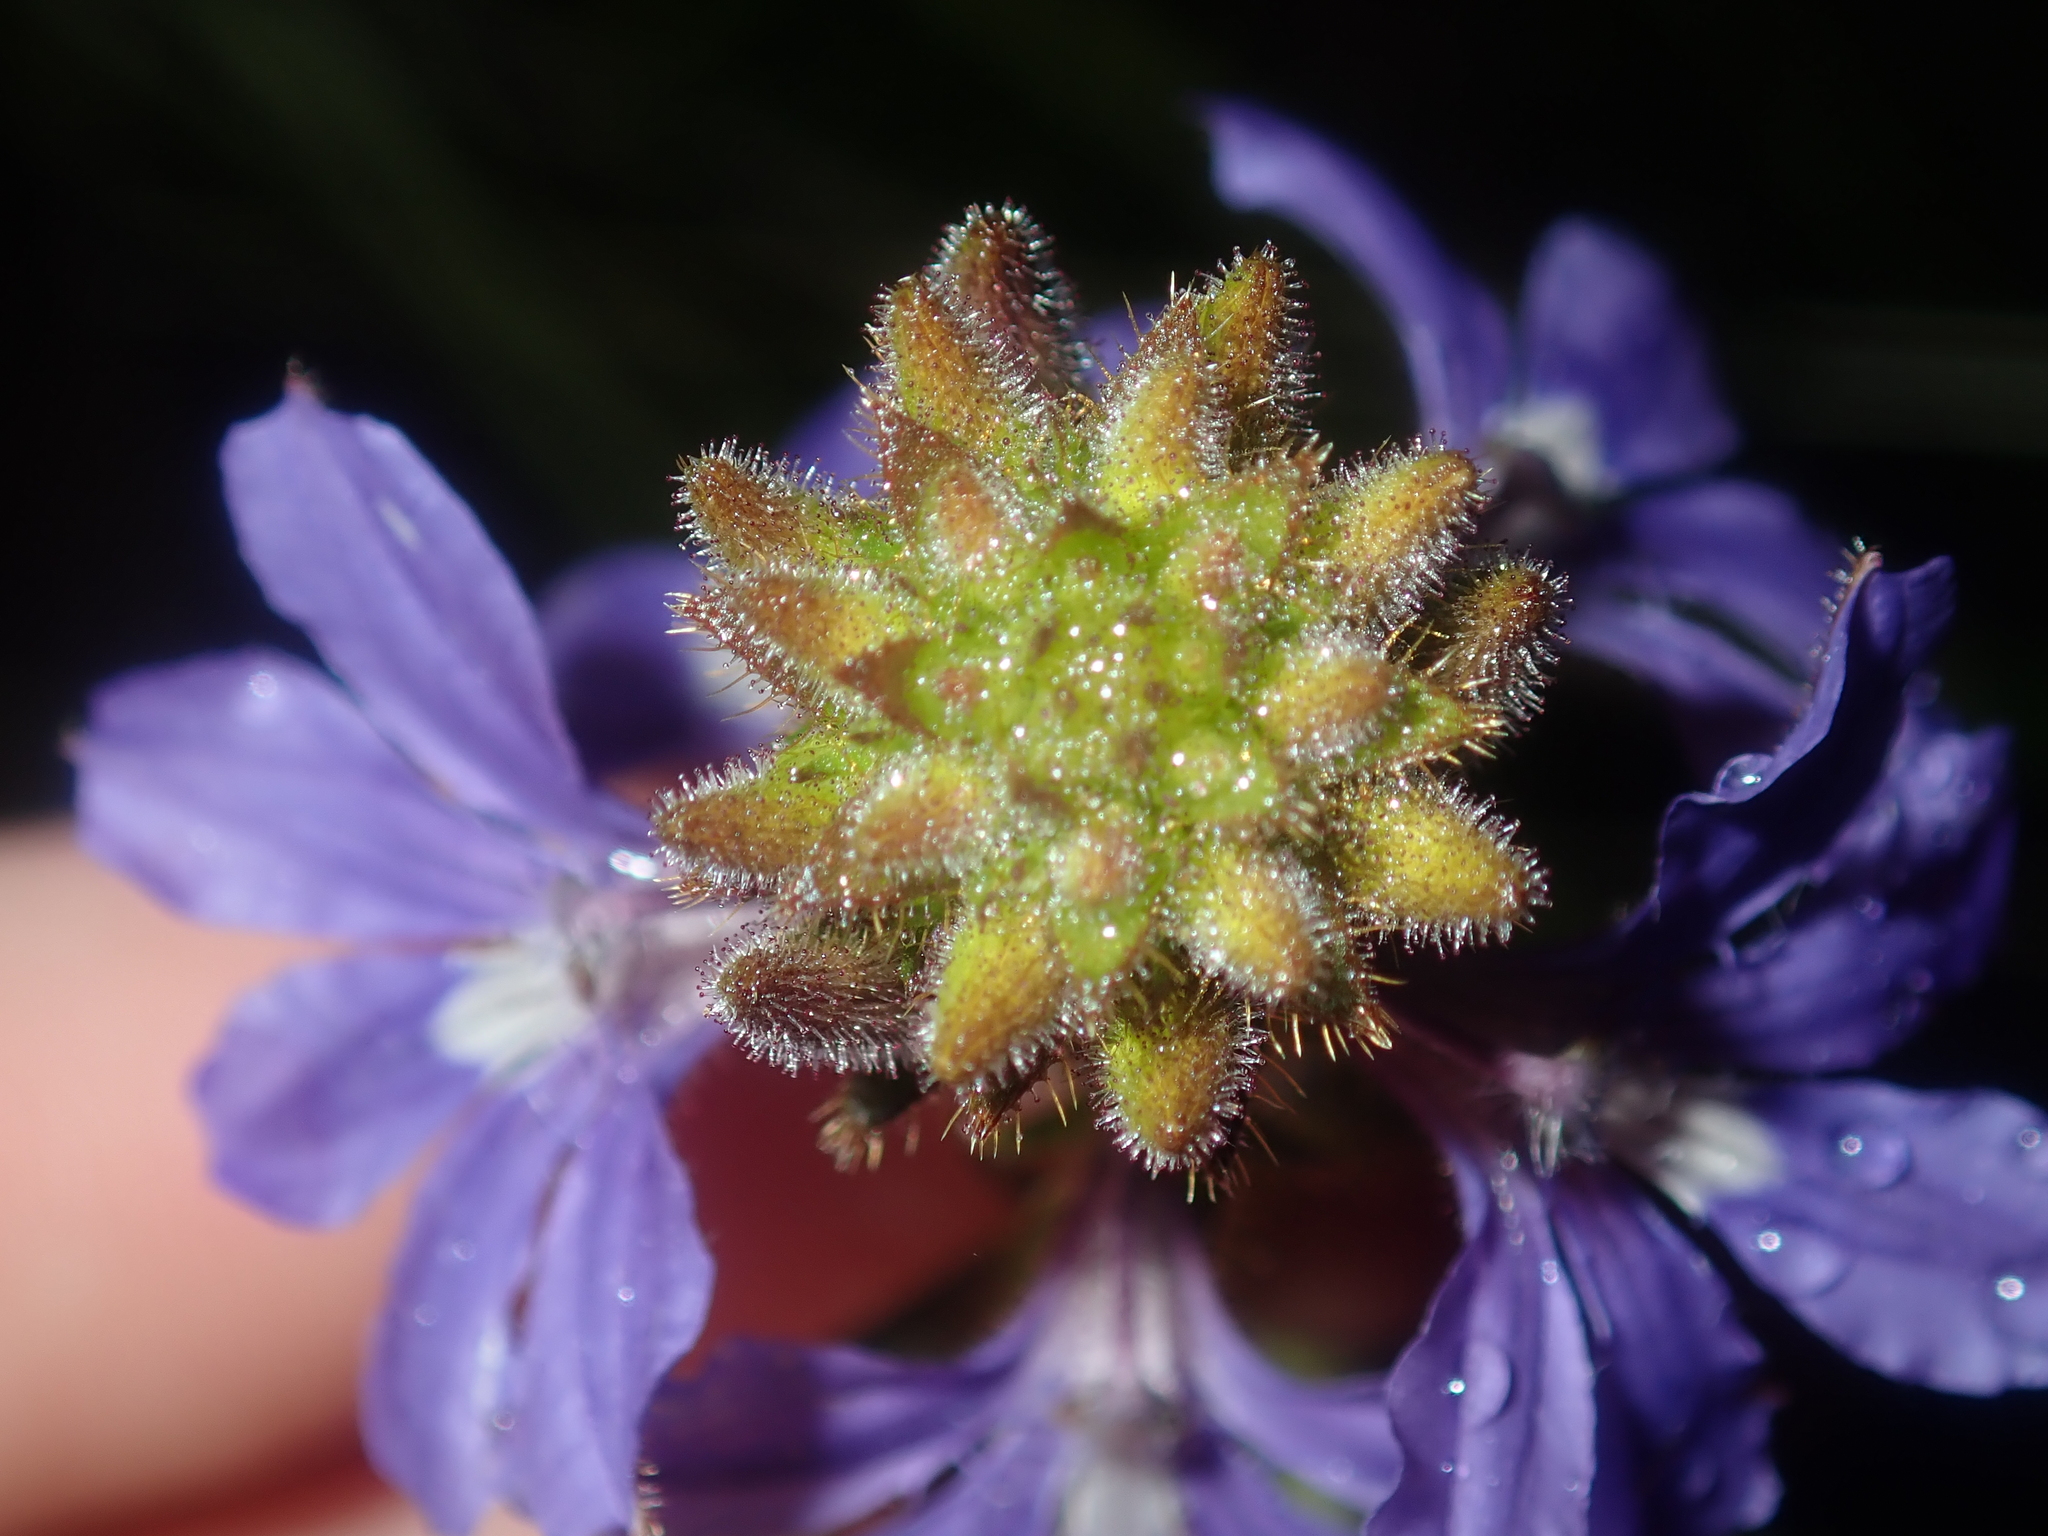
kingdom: Plantae
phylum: Tracheophyta
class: Magnoliopsida
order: Asterales
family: Goodeniaceae
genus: Scaevola
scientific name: Scaevola glandulifera
